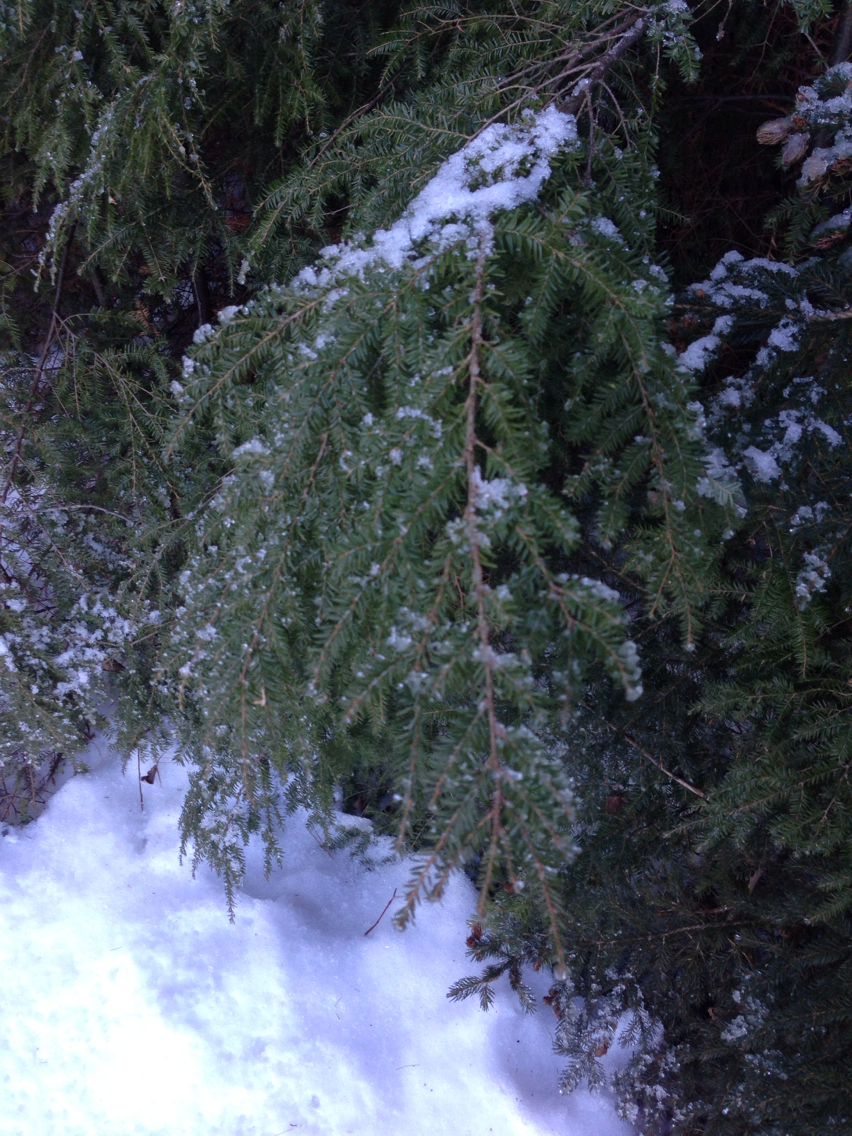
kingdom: Plantae
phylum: Tracheophyta
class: Pinopsida
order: Pinales
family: Pinaceae
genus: Tsuga
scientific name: Tsuga canadensis
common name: Eastern hemlock
